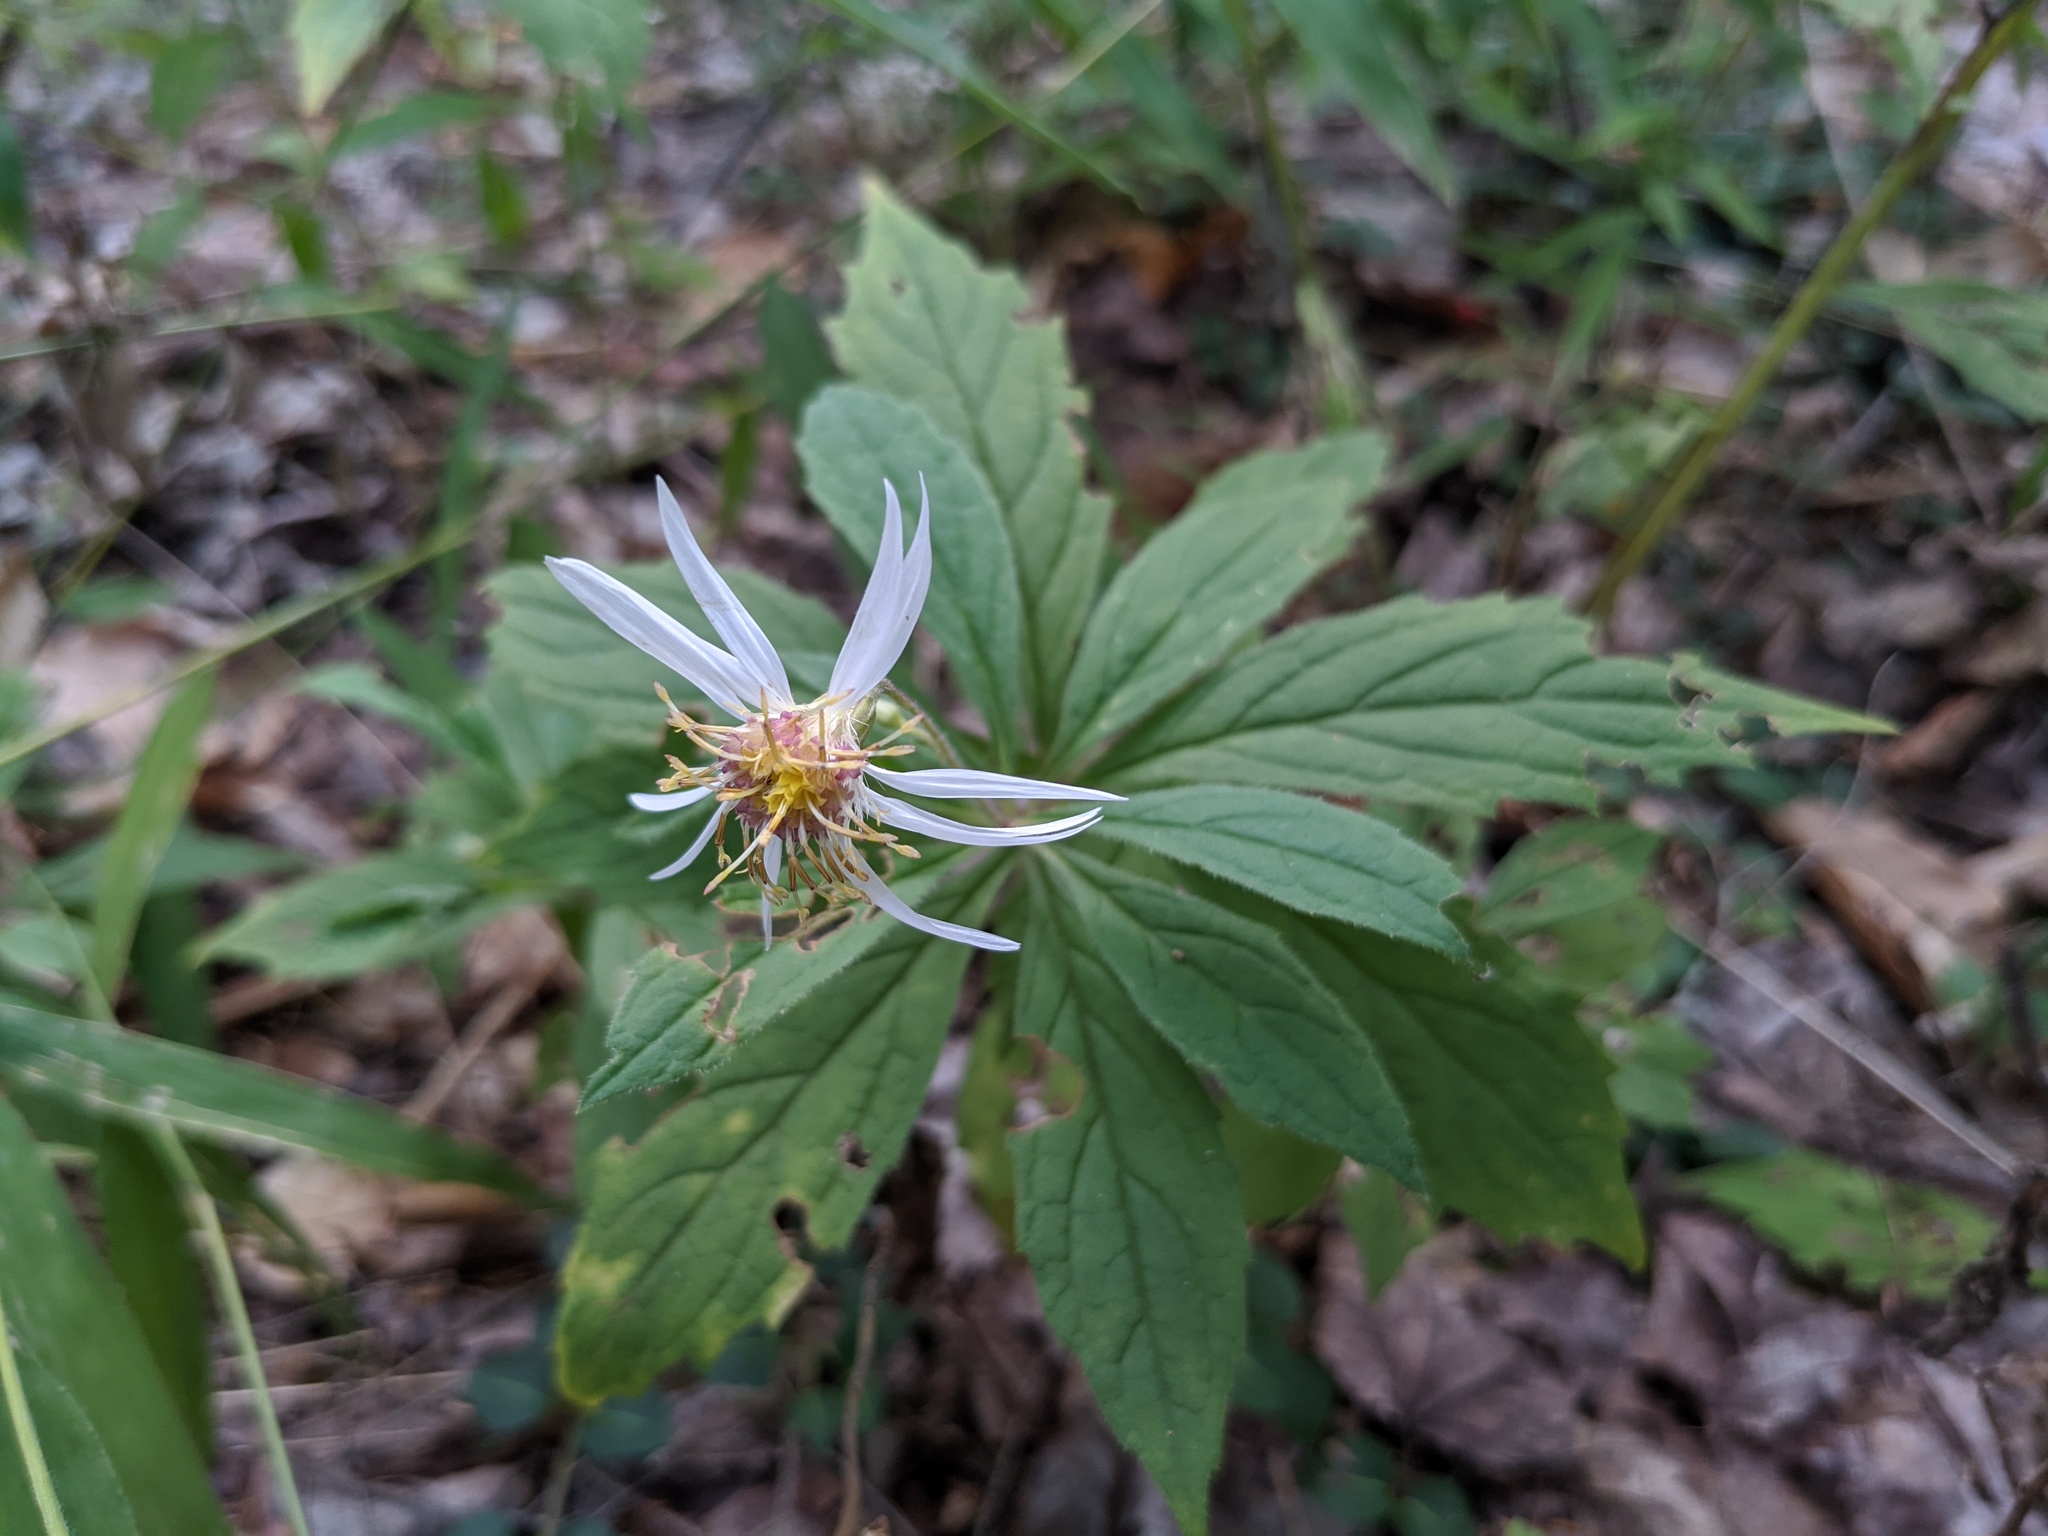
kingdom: Plantae
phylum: Tracheophyta
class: Magnoliopsida
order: Asterales
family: Asteraceae
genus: Oclemena
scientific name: Oclemena acuminata
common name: Mountain aster
